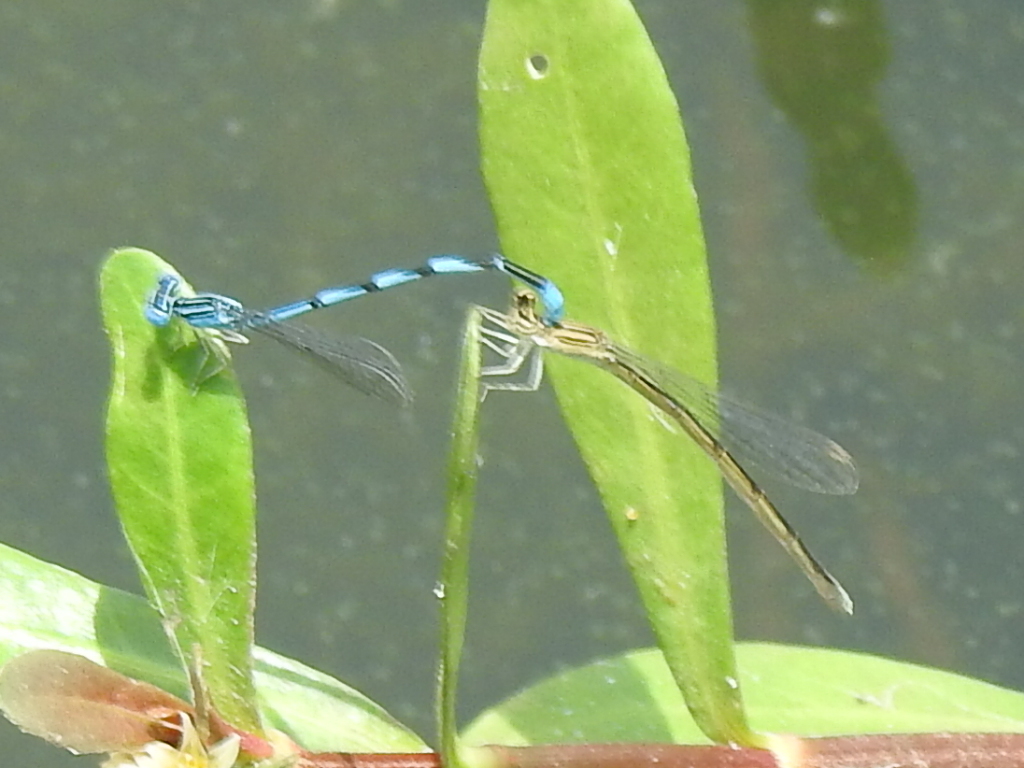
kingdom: Animalia
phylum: Arthropoda
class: Insecta
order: Odonata
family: Coenagrionidae
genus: Enallagma
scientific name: Enallagma basidens
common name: Double-striped bluet
